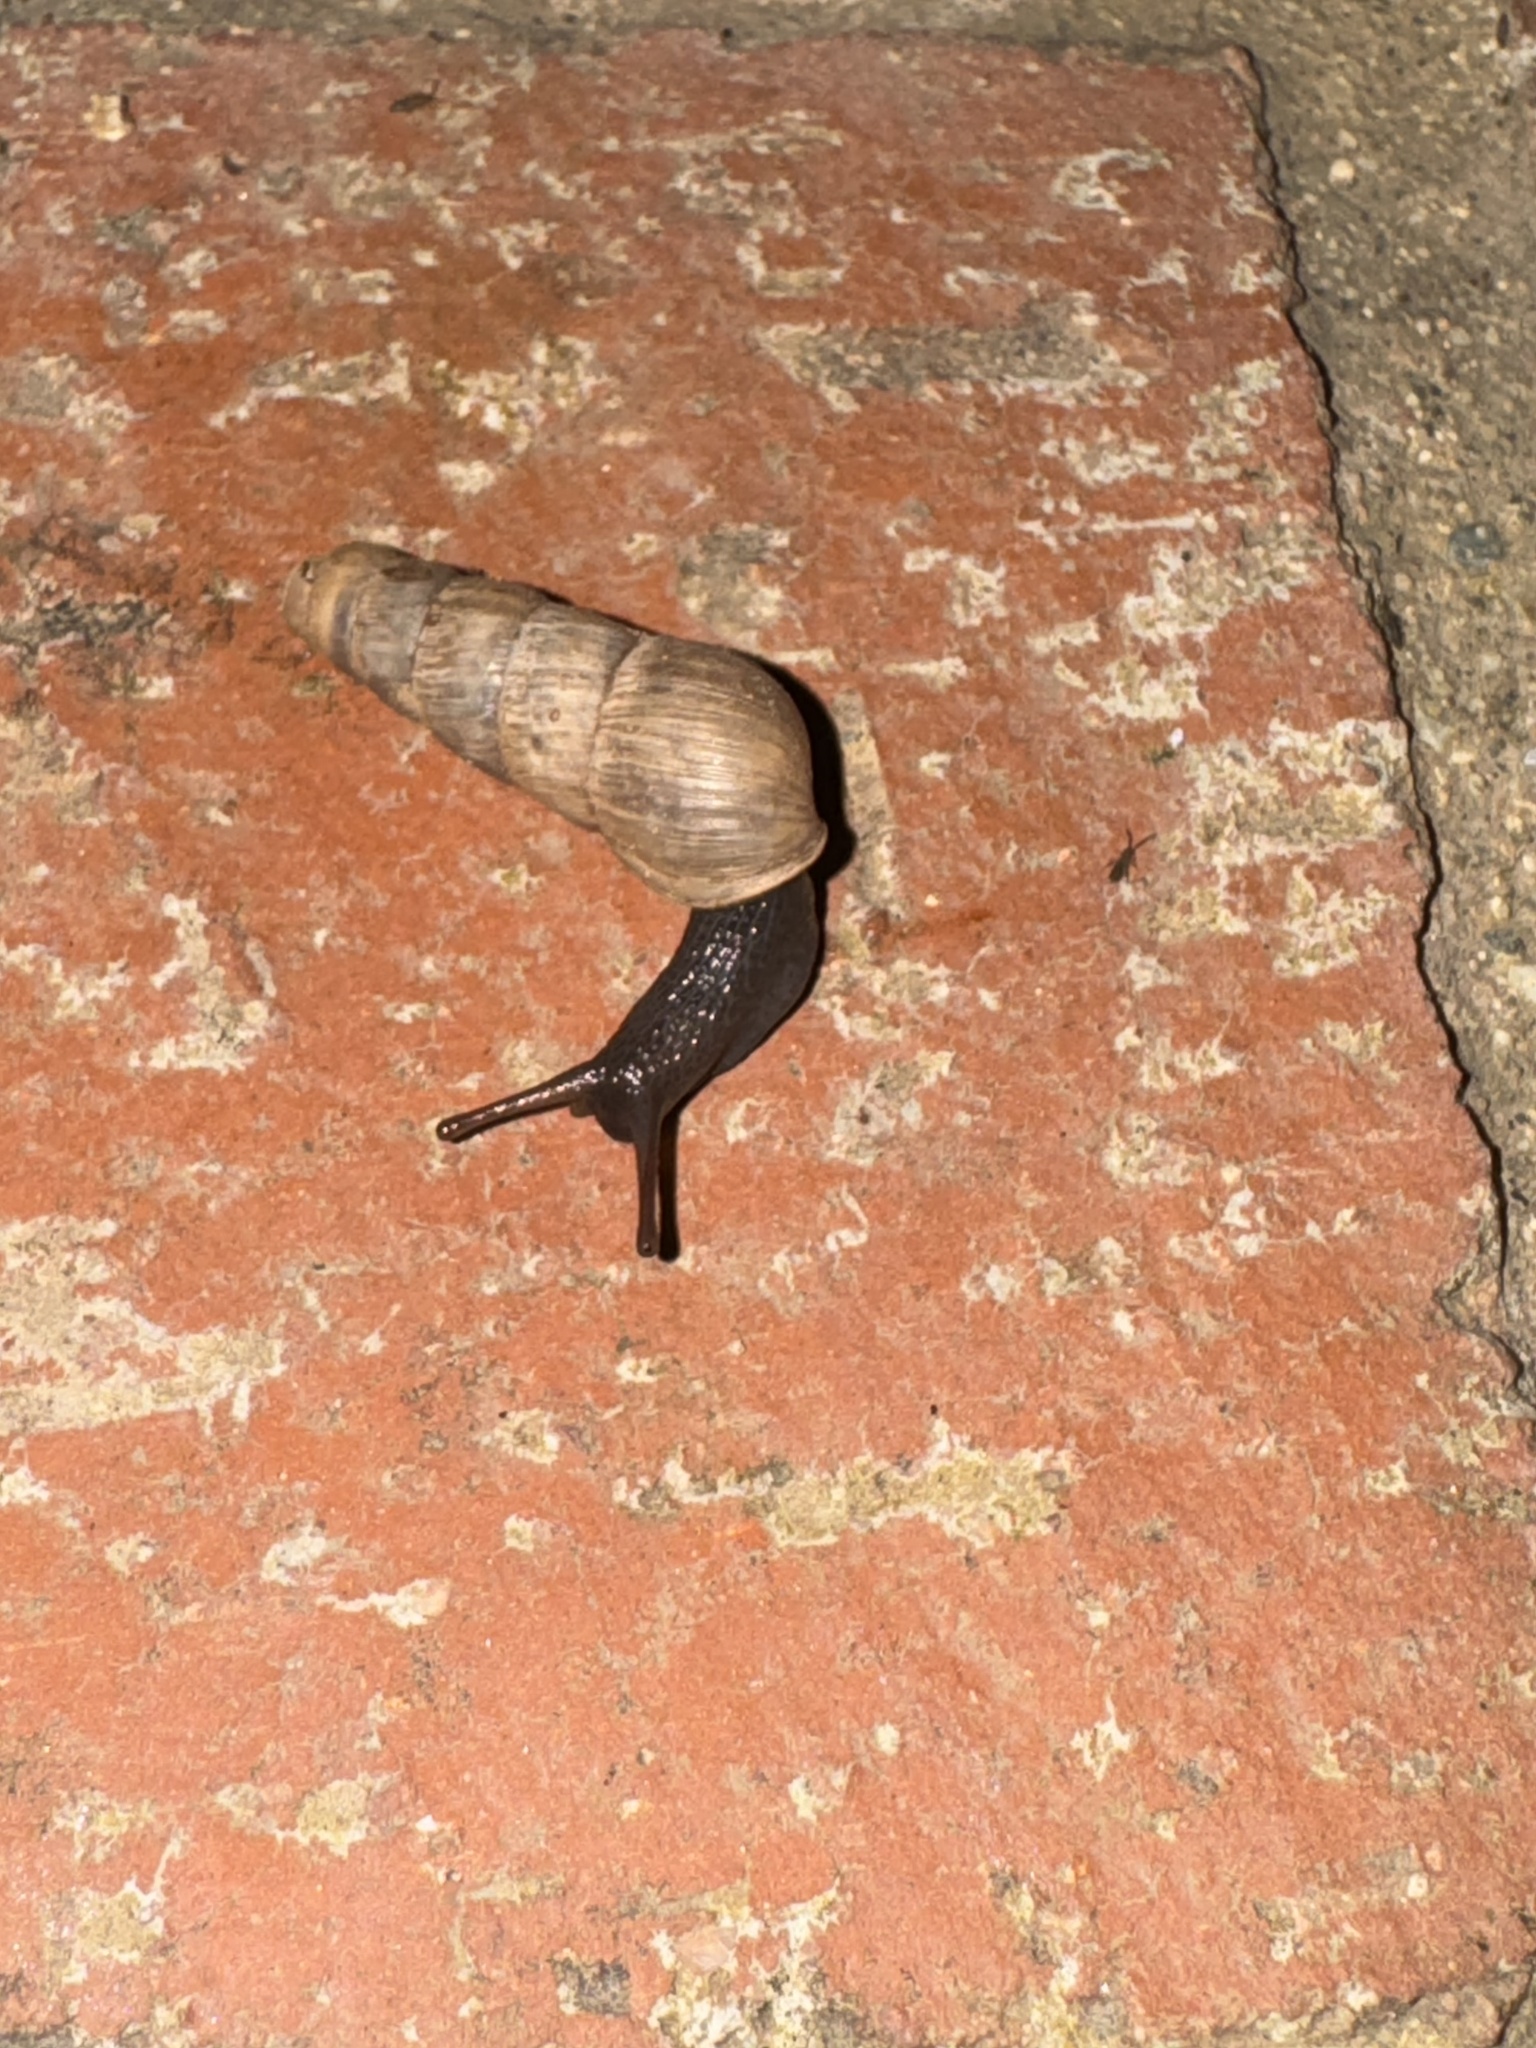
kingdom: Animalia
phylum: Mollusca
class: Gastropoda
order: Stylommatophora
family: Achatinidae
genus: Rumina
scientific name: Rumina decollata
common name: Decollate snail
